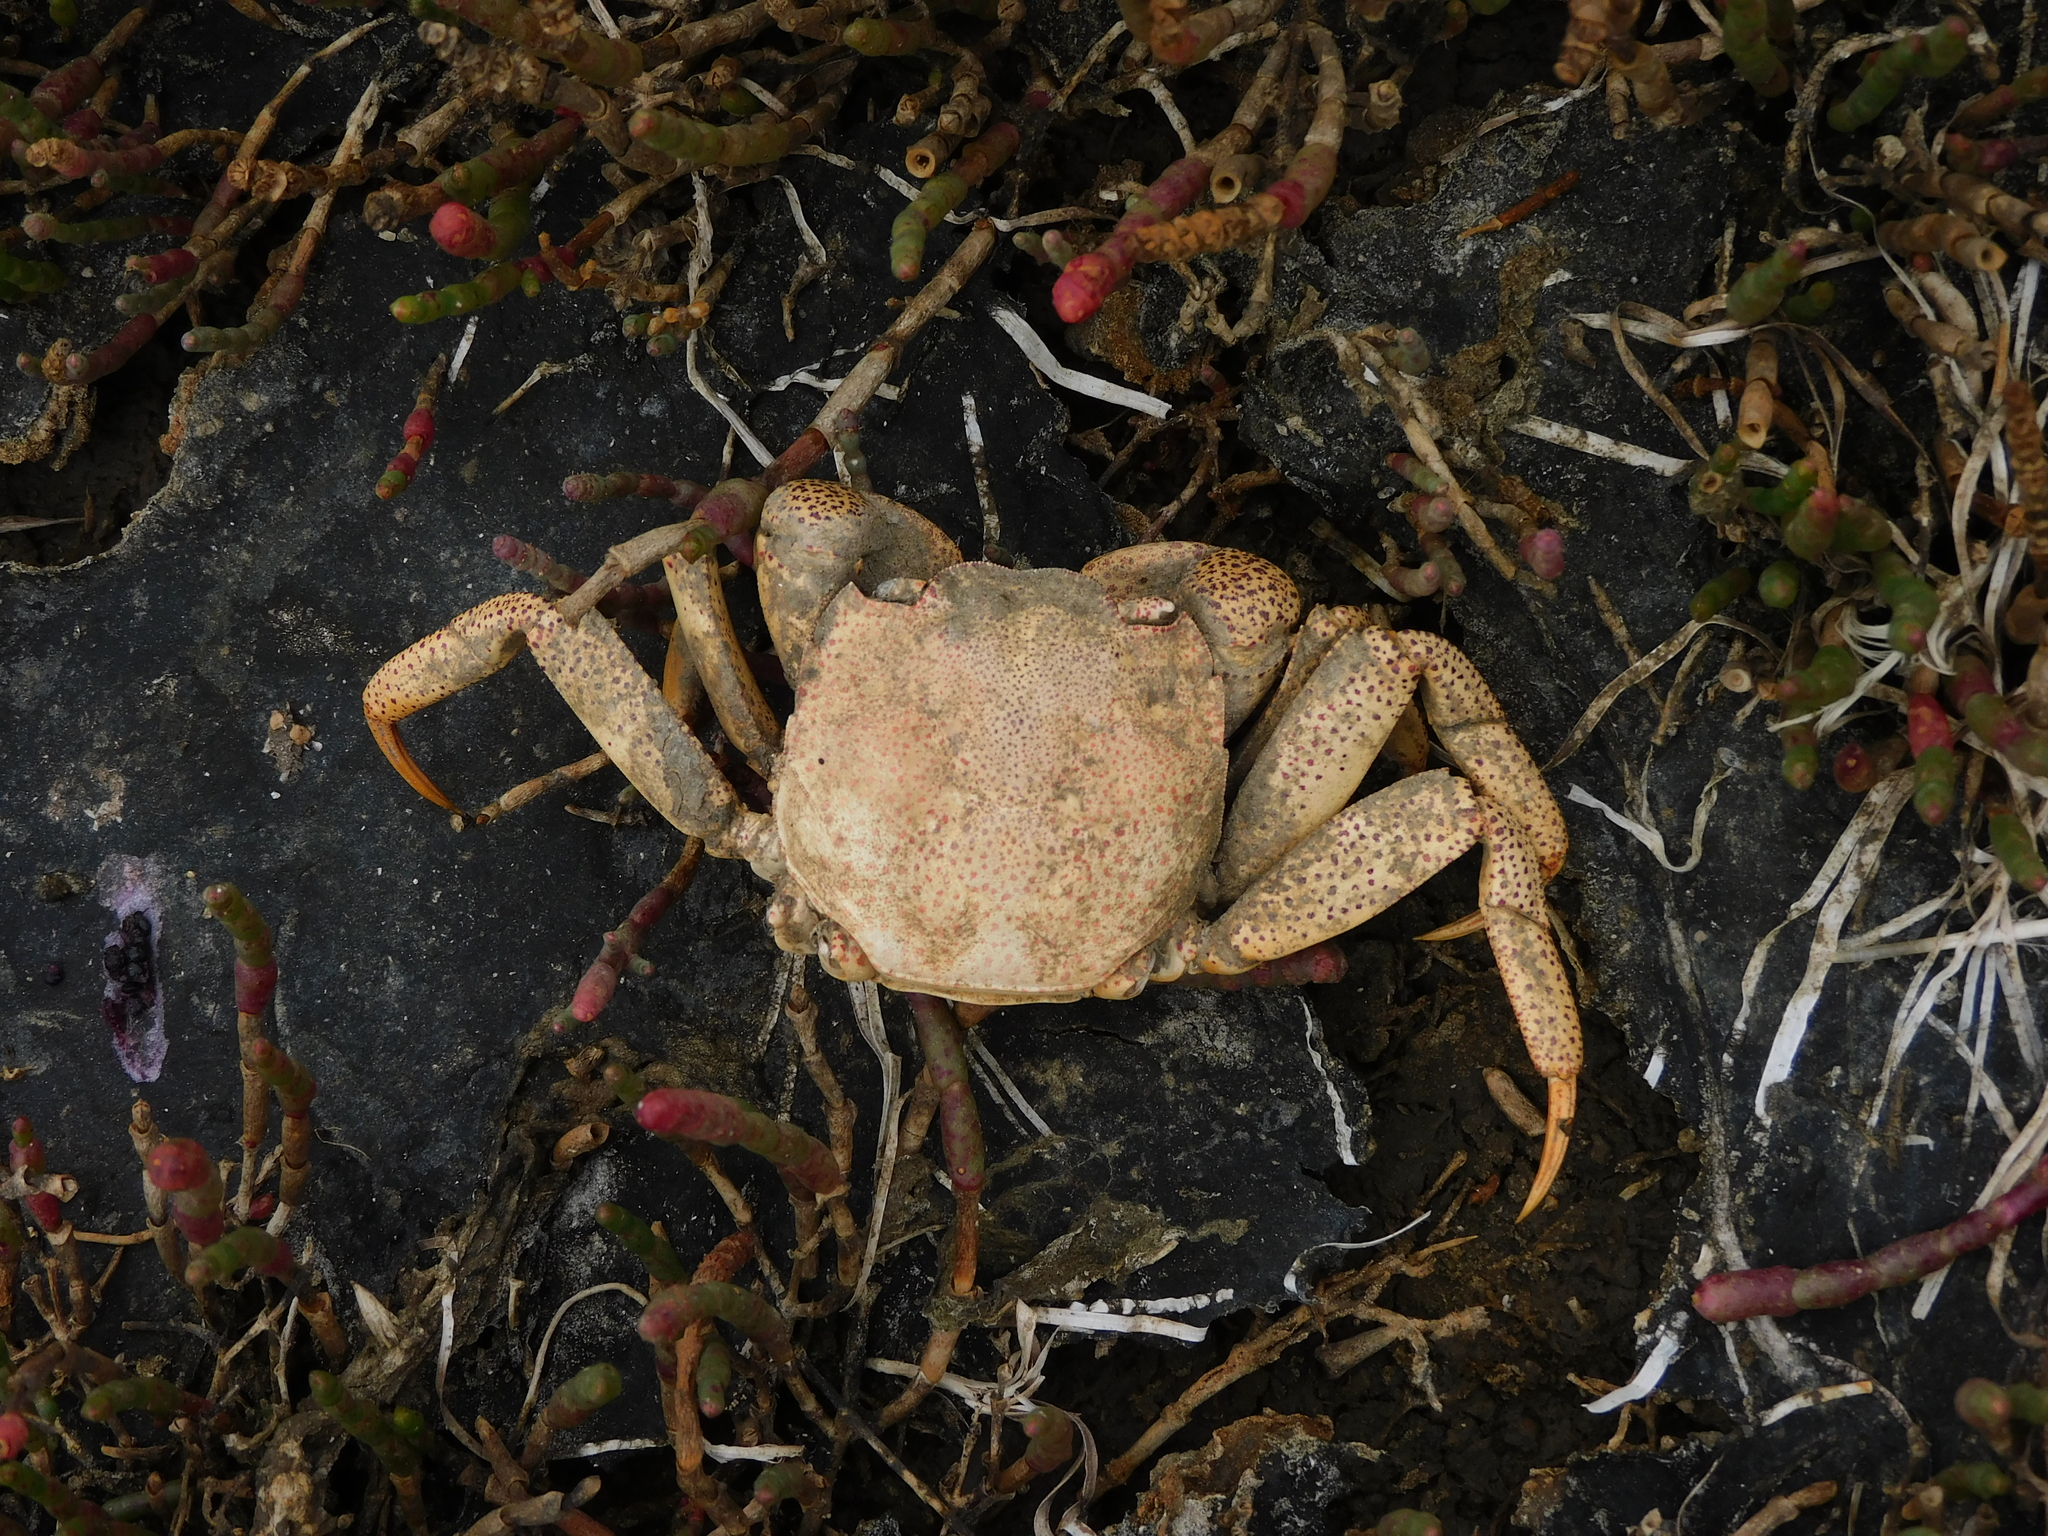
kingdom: Animalia
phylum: Arthropoda
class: Malacostraca
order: Decapoda
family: Varunidae
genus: Paragrapsus
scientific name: Paragrapsus gaimardii
